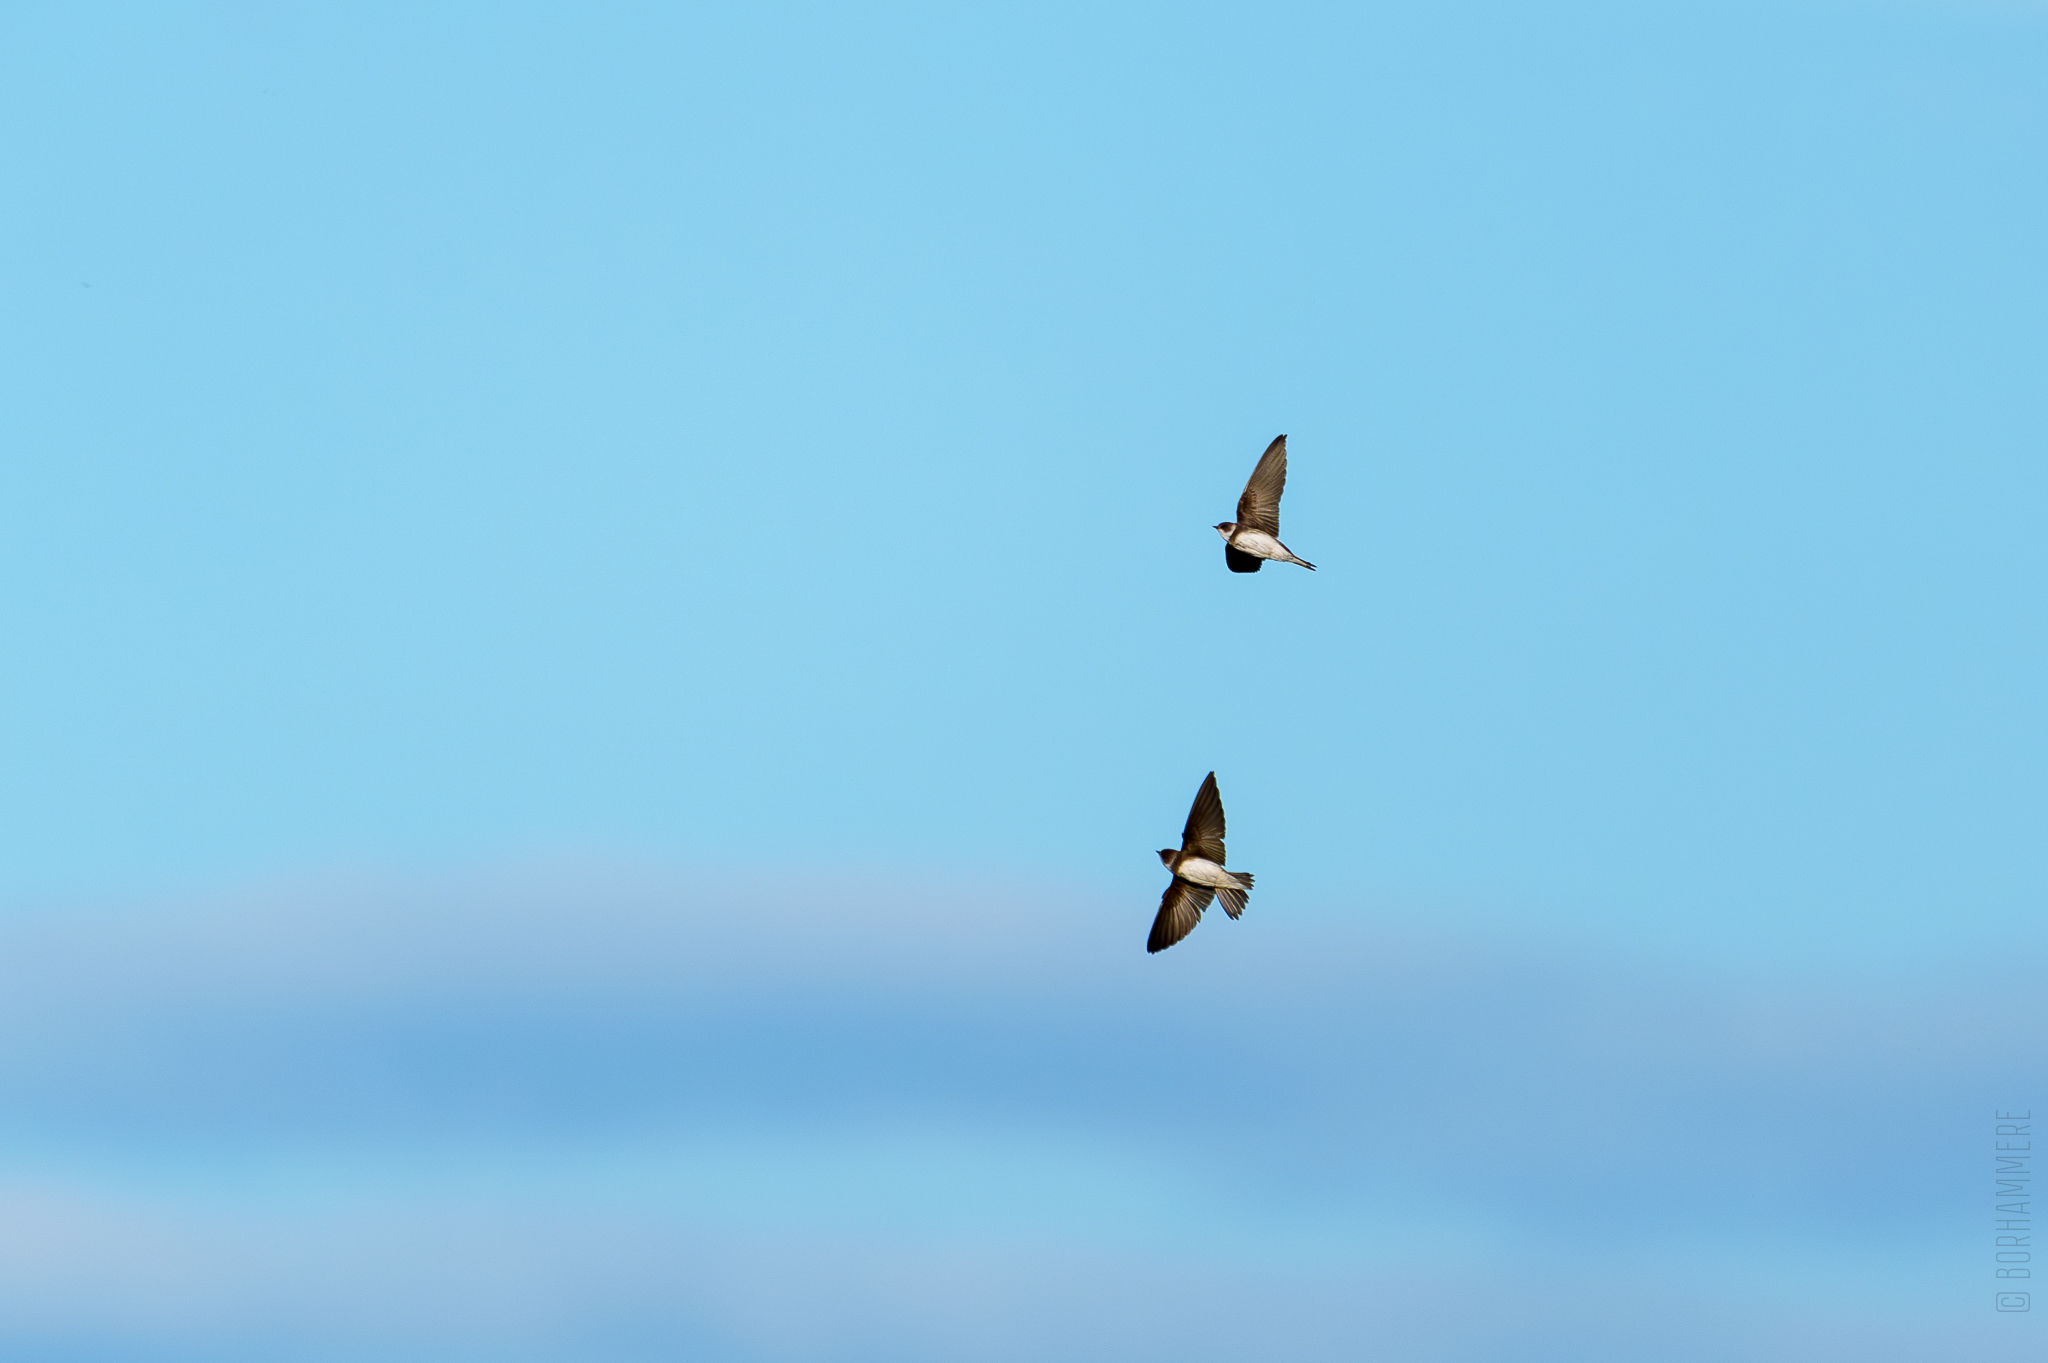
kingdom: Animalia
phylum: Chordata
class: Aves
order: Passeriformes
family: Hirundinidae
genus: Riparia
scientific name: Riparia riparia
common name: Sand martin
